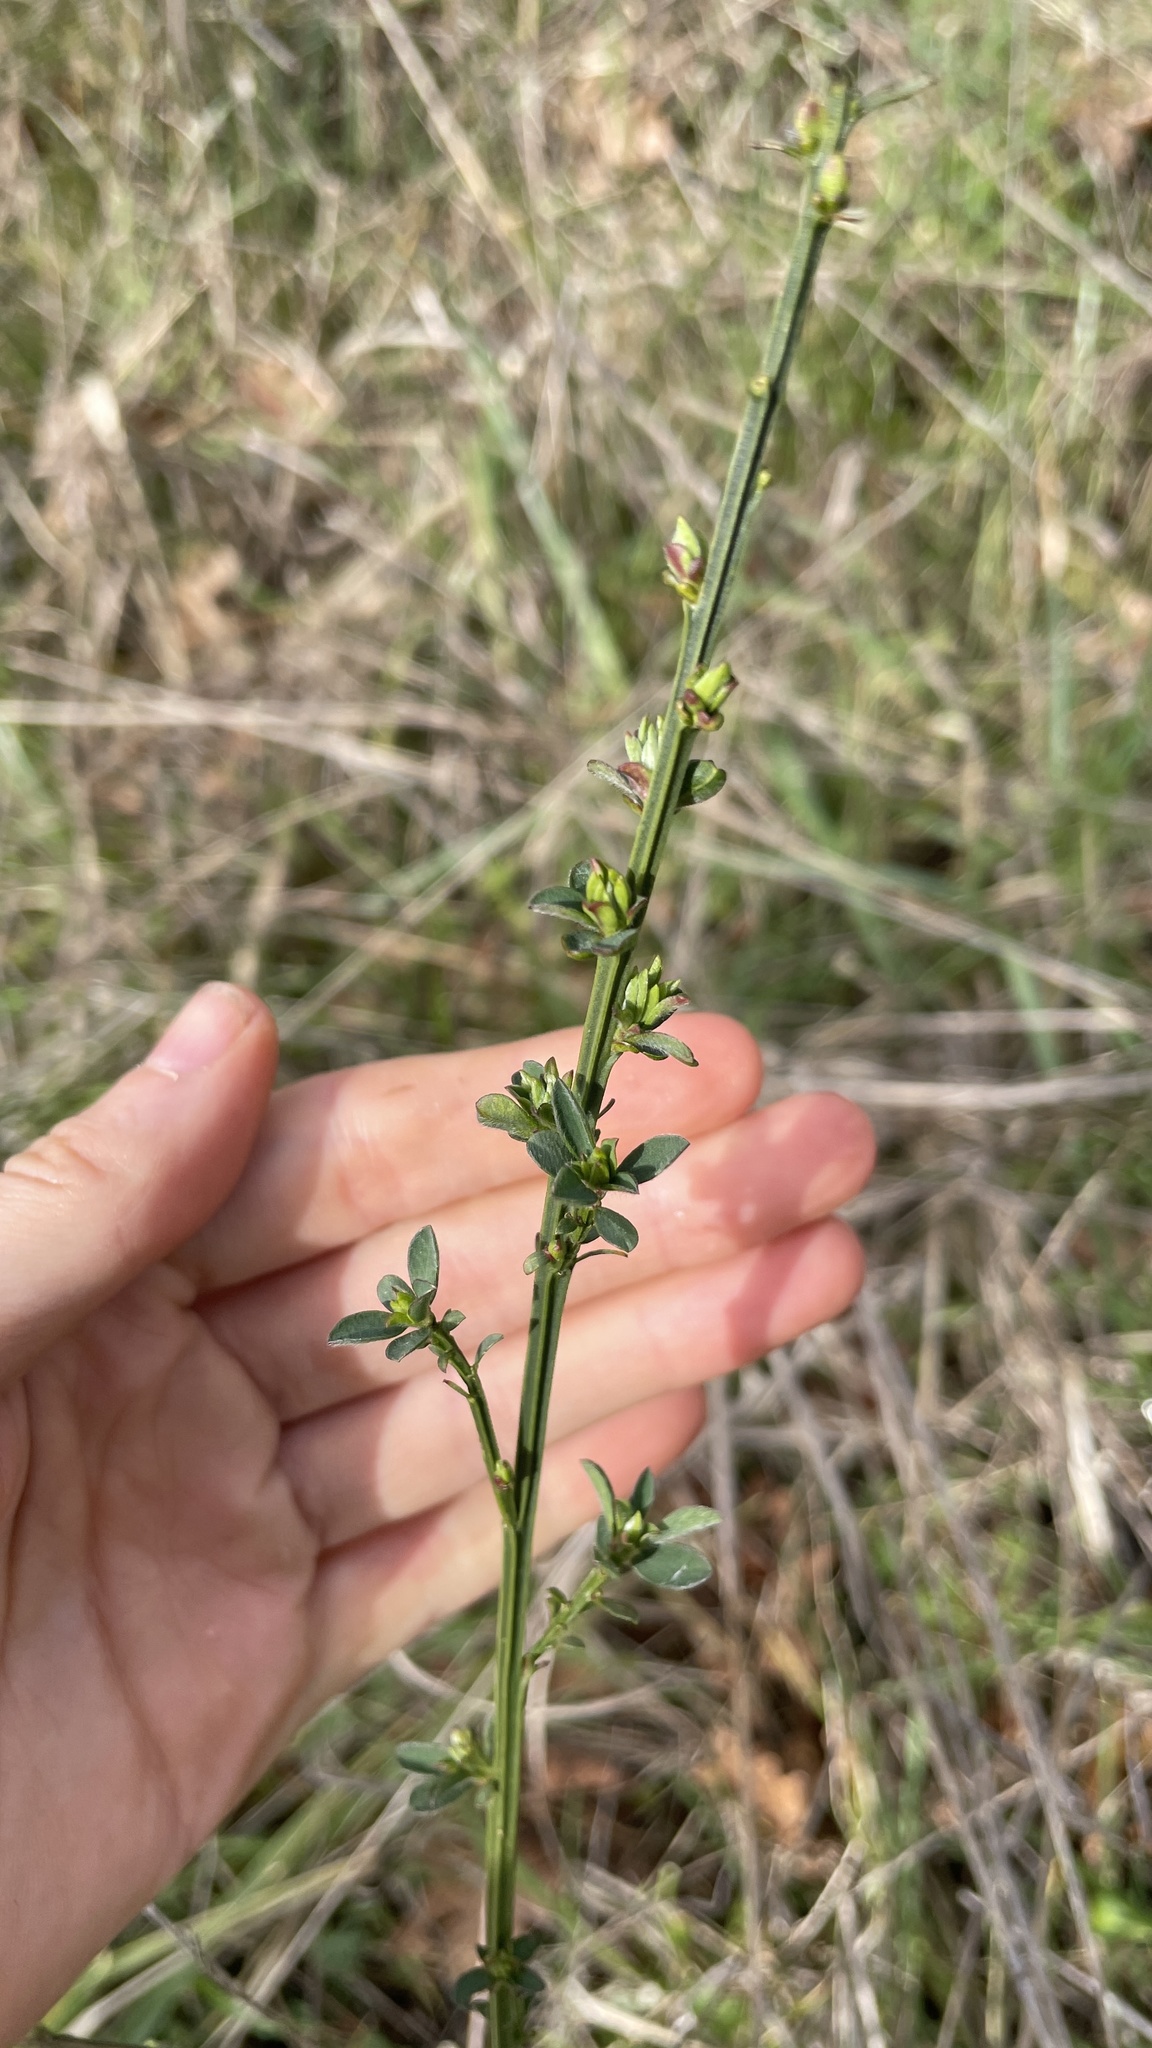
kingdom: Plantae
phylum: Tracheophyta
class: Magnoliopsida
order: Fabales
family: Fabaceae
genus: Cytisus
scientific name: Cytisus scoparius
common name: Scotch broom
